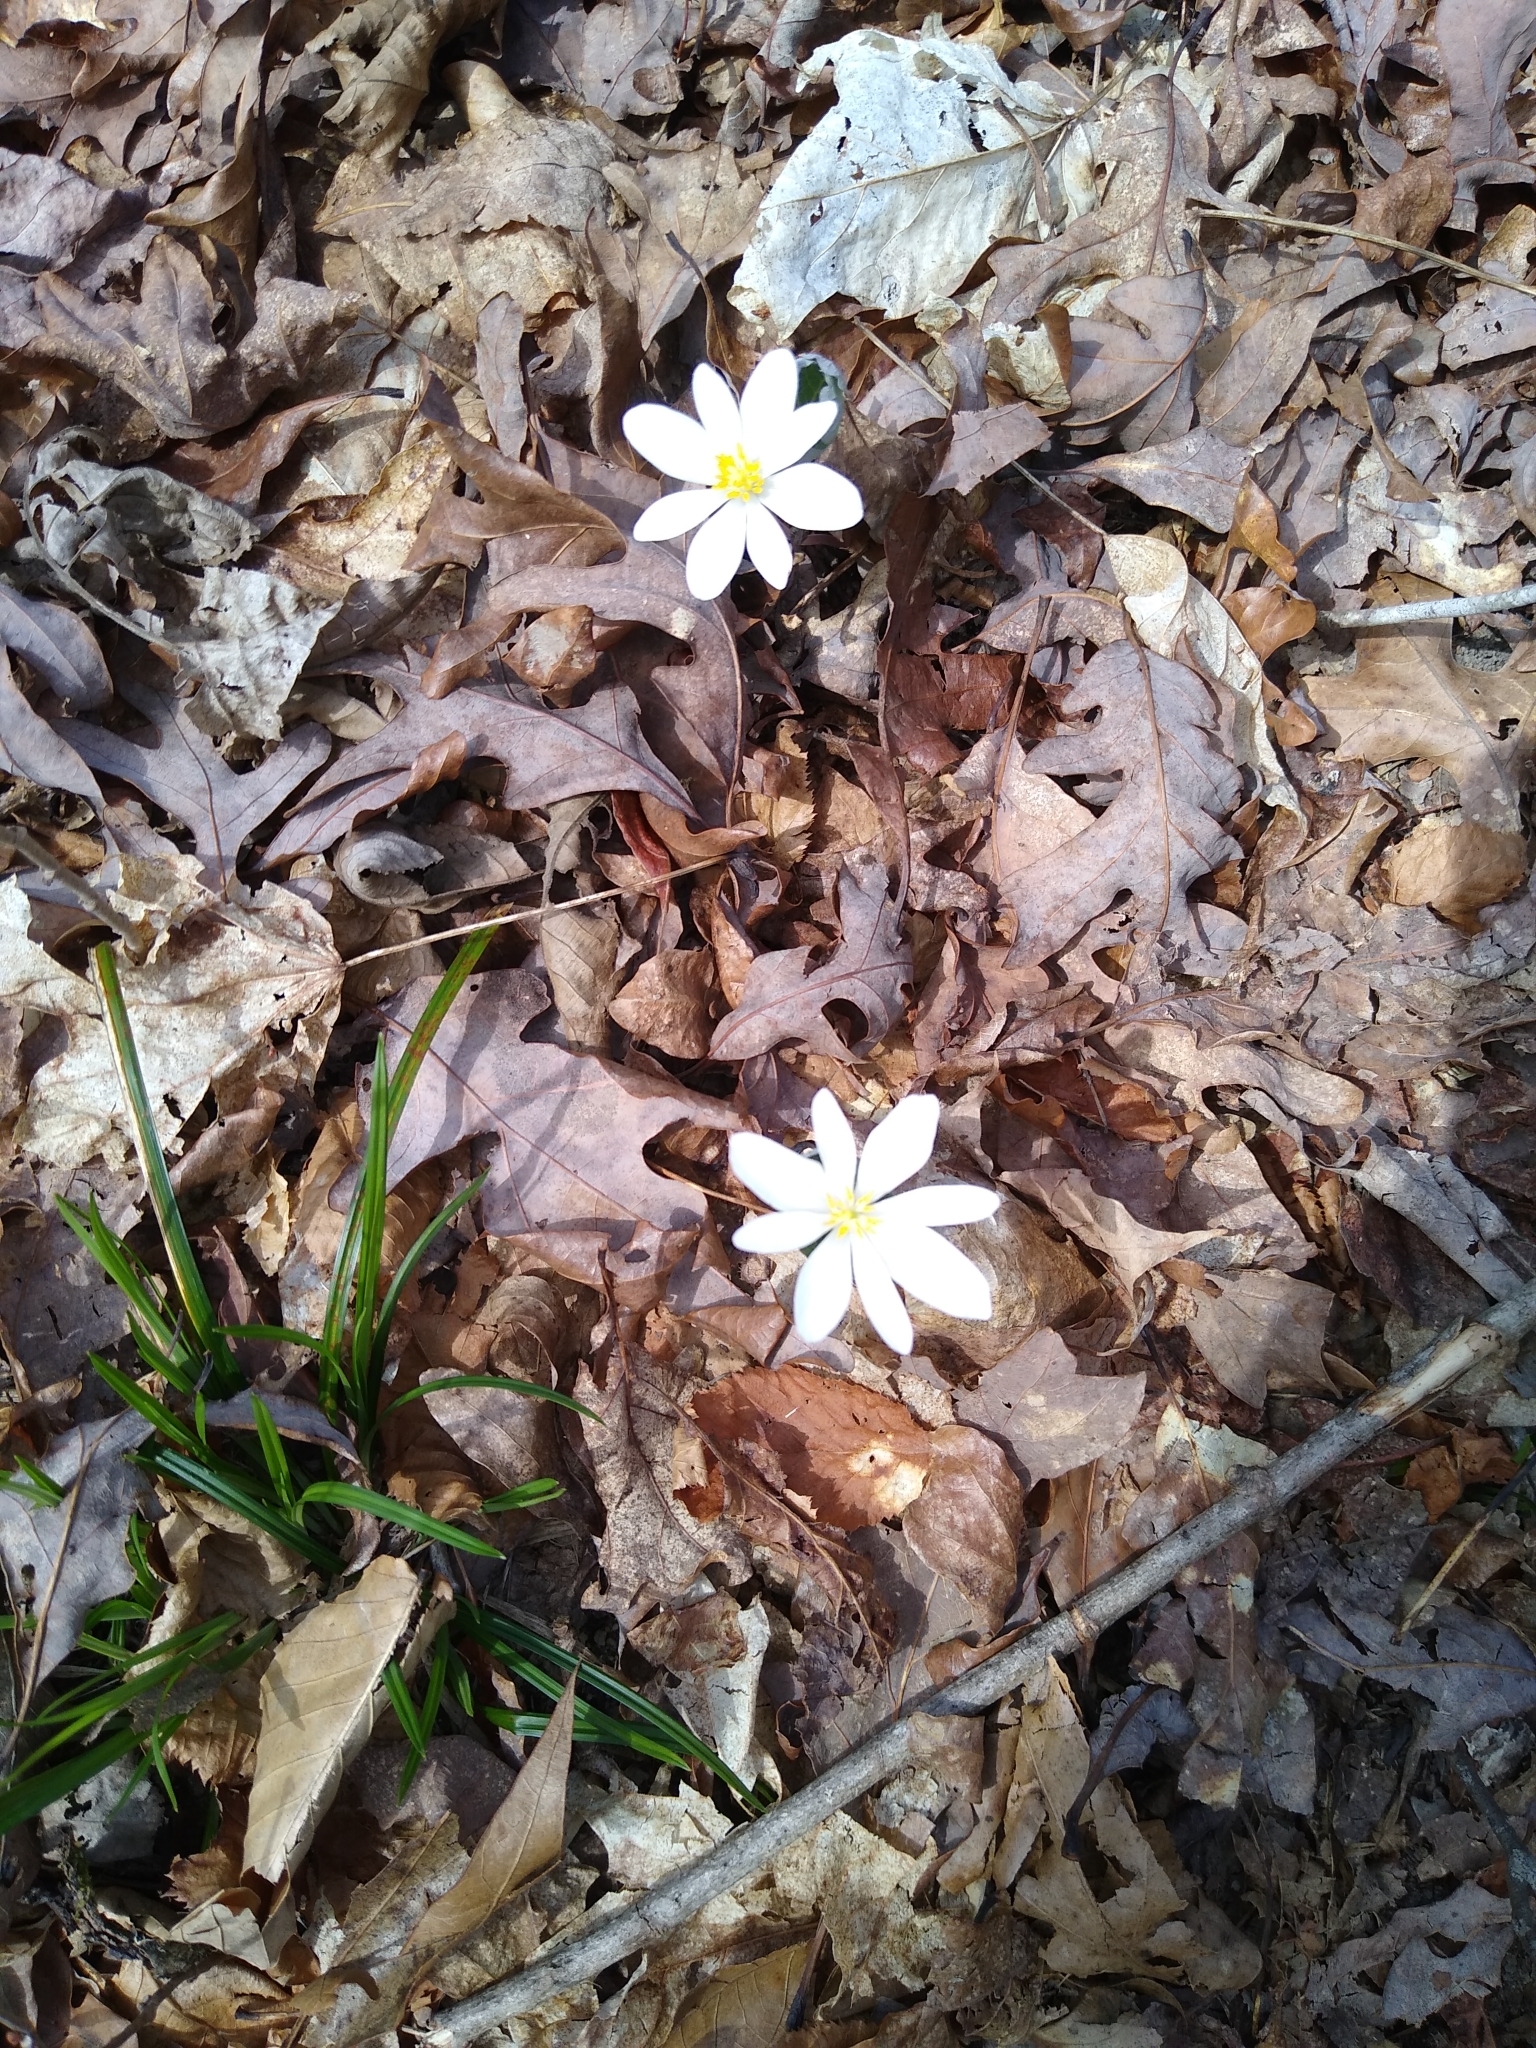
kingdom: Plantae
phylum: Tracheophyta
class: Magnoliopsida
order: Ranunculales
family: Papaveraceae
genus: Sanguinaria
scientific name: Sanguinaria canadensis
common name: Bloodroot
